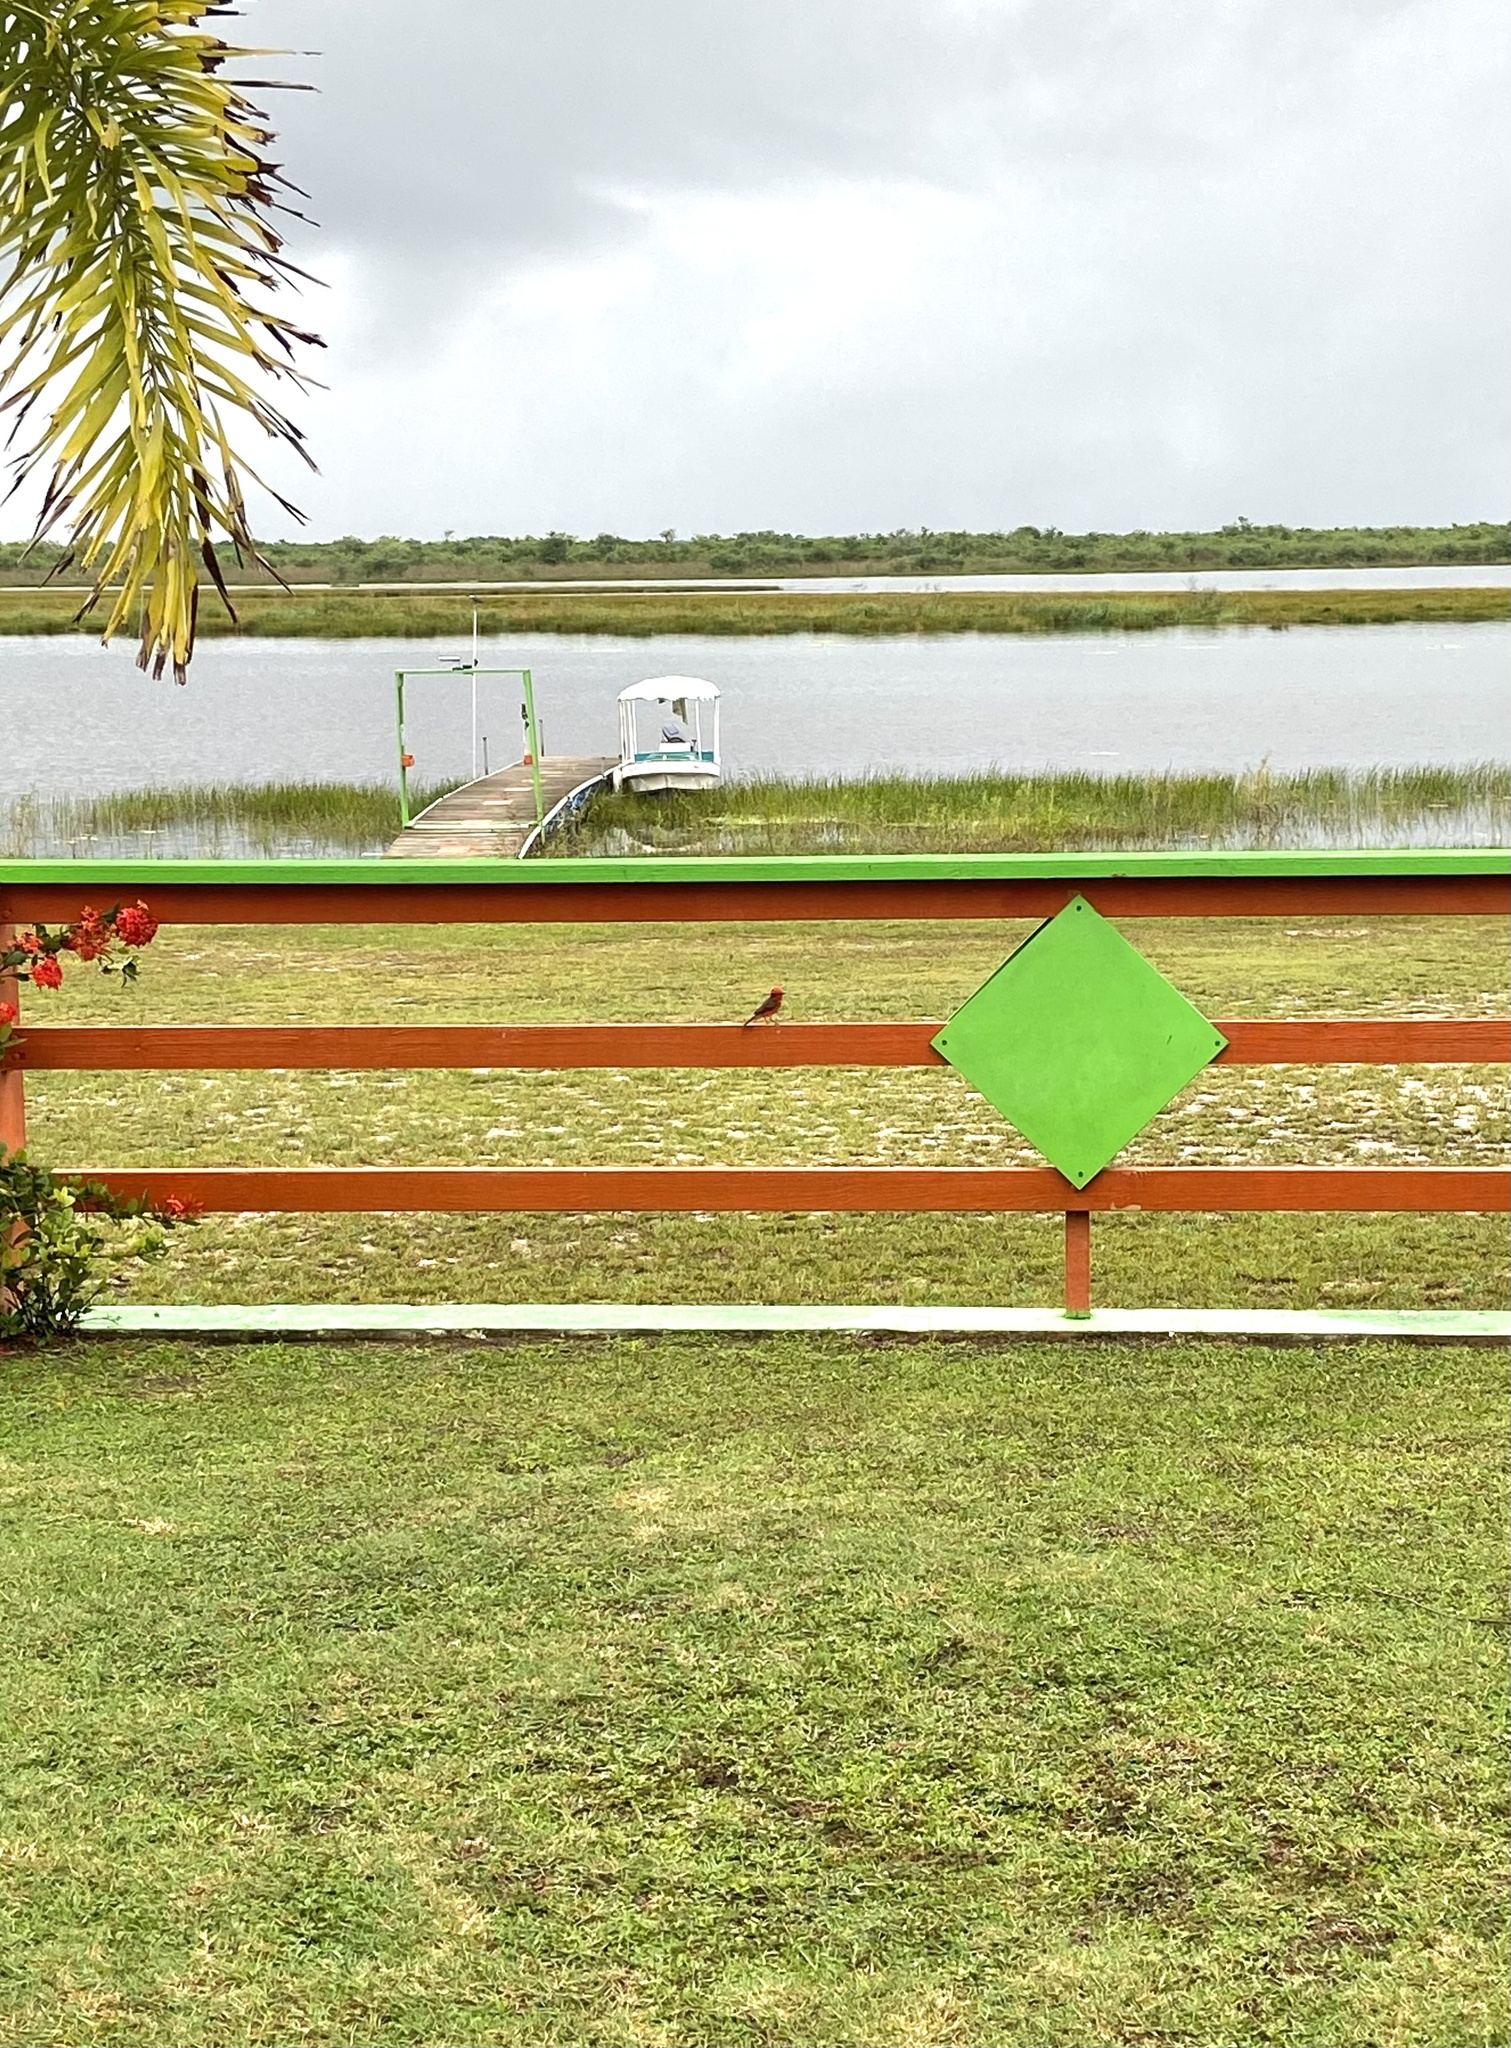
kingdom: Animalia
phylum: Chordata
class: Aves
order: Passeriformes
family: Tyrannidae
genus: Pyrocephalus
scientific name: Pyrocephalus rubinus
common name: Vermilion flycatcher
